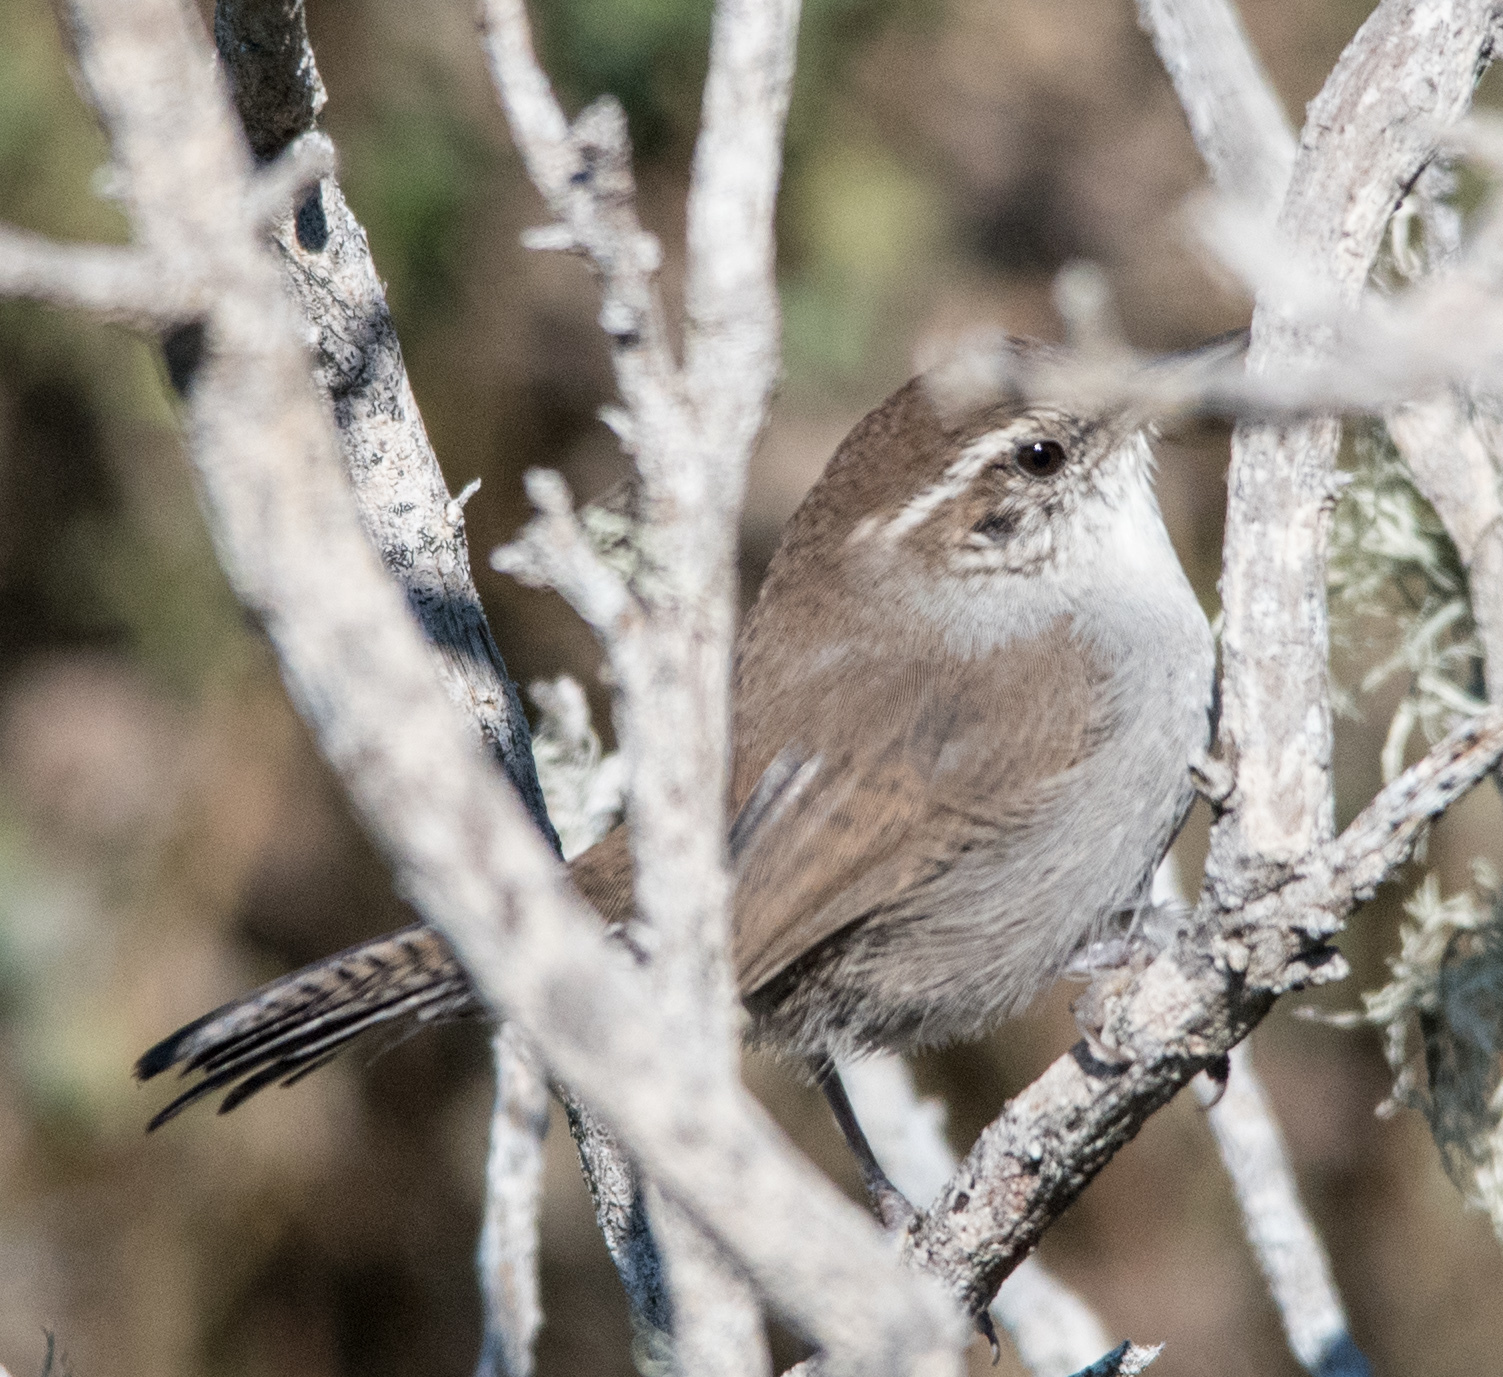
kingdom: Animalia
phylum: Chordata
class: Aves
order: Passeriformes
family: Troglodytidae
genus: Thryomanes
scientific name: Thryomanes bewickii
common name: Bewick's wren
